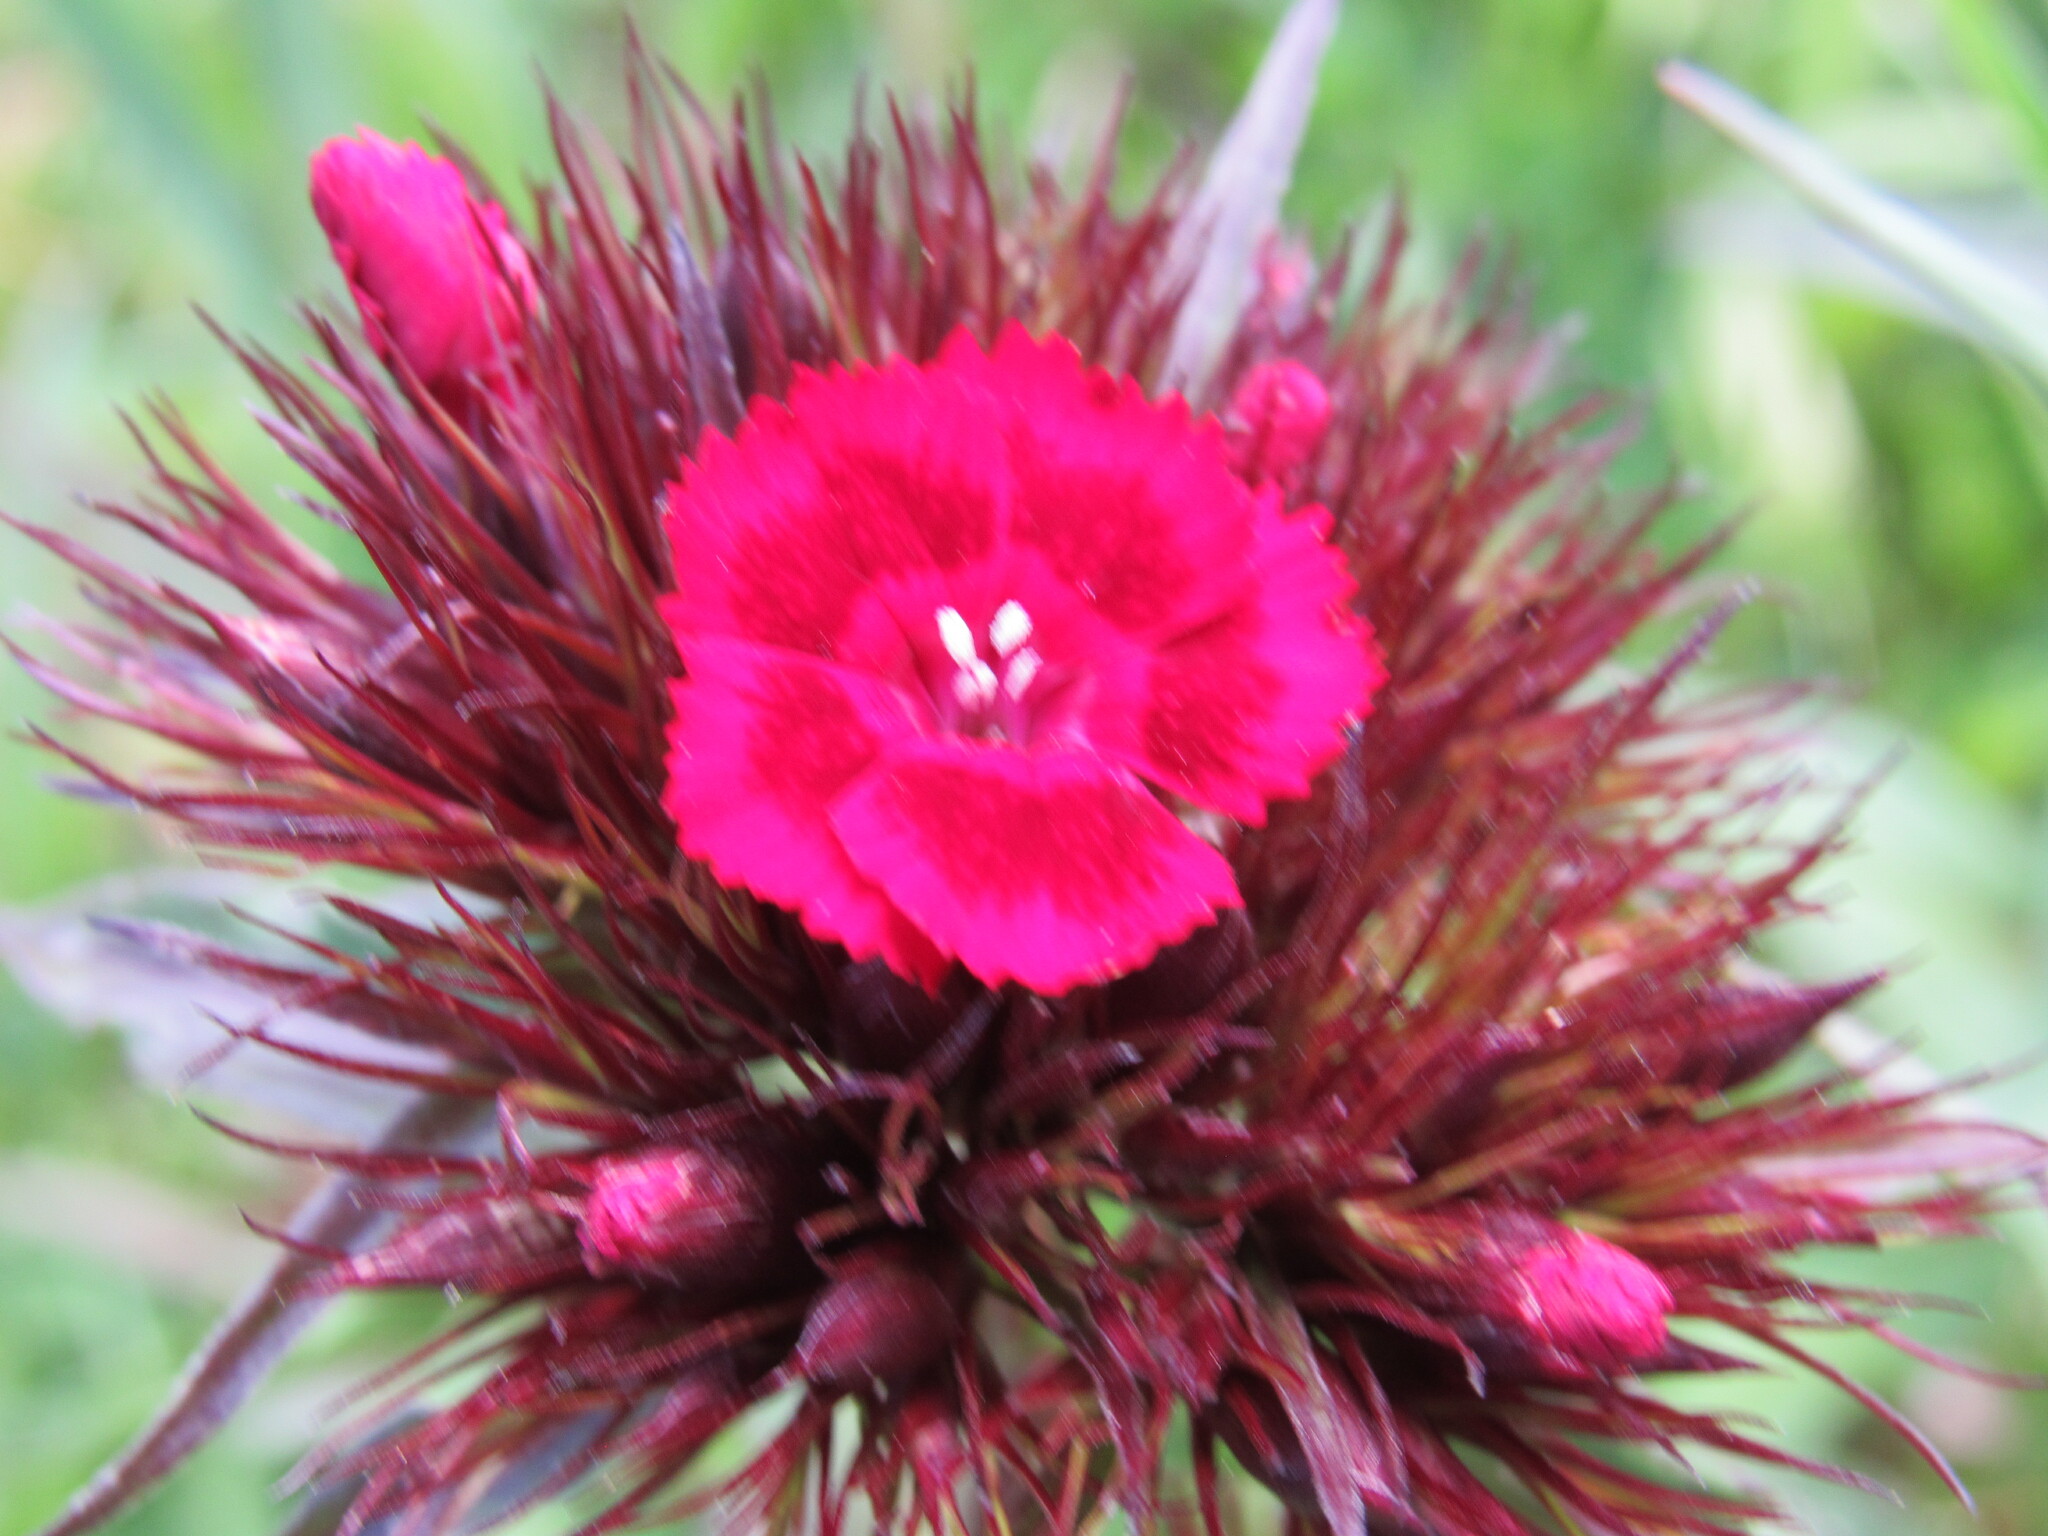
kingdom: Plantae
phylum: Tracheophyta
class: Magnoliopsida
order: Caryophyllales
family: Caryophyllaceae
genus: Dianthus
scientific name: Dianthus barbatus
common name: Sweet-william
